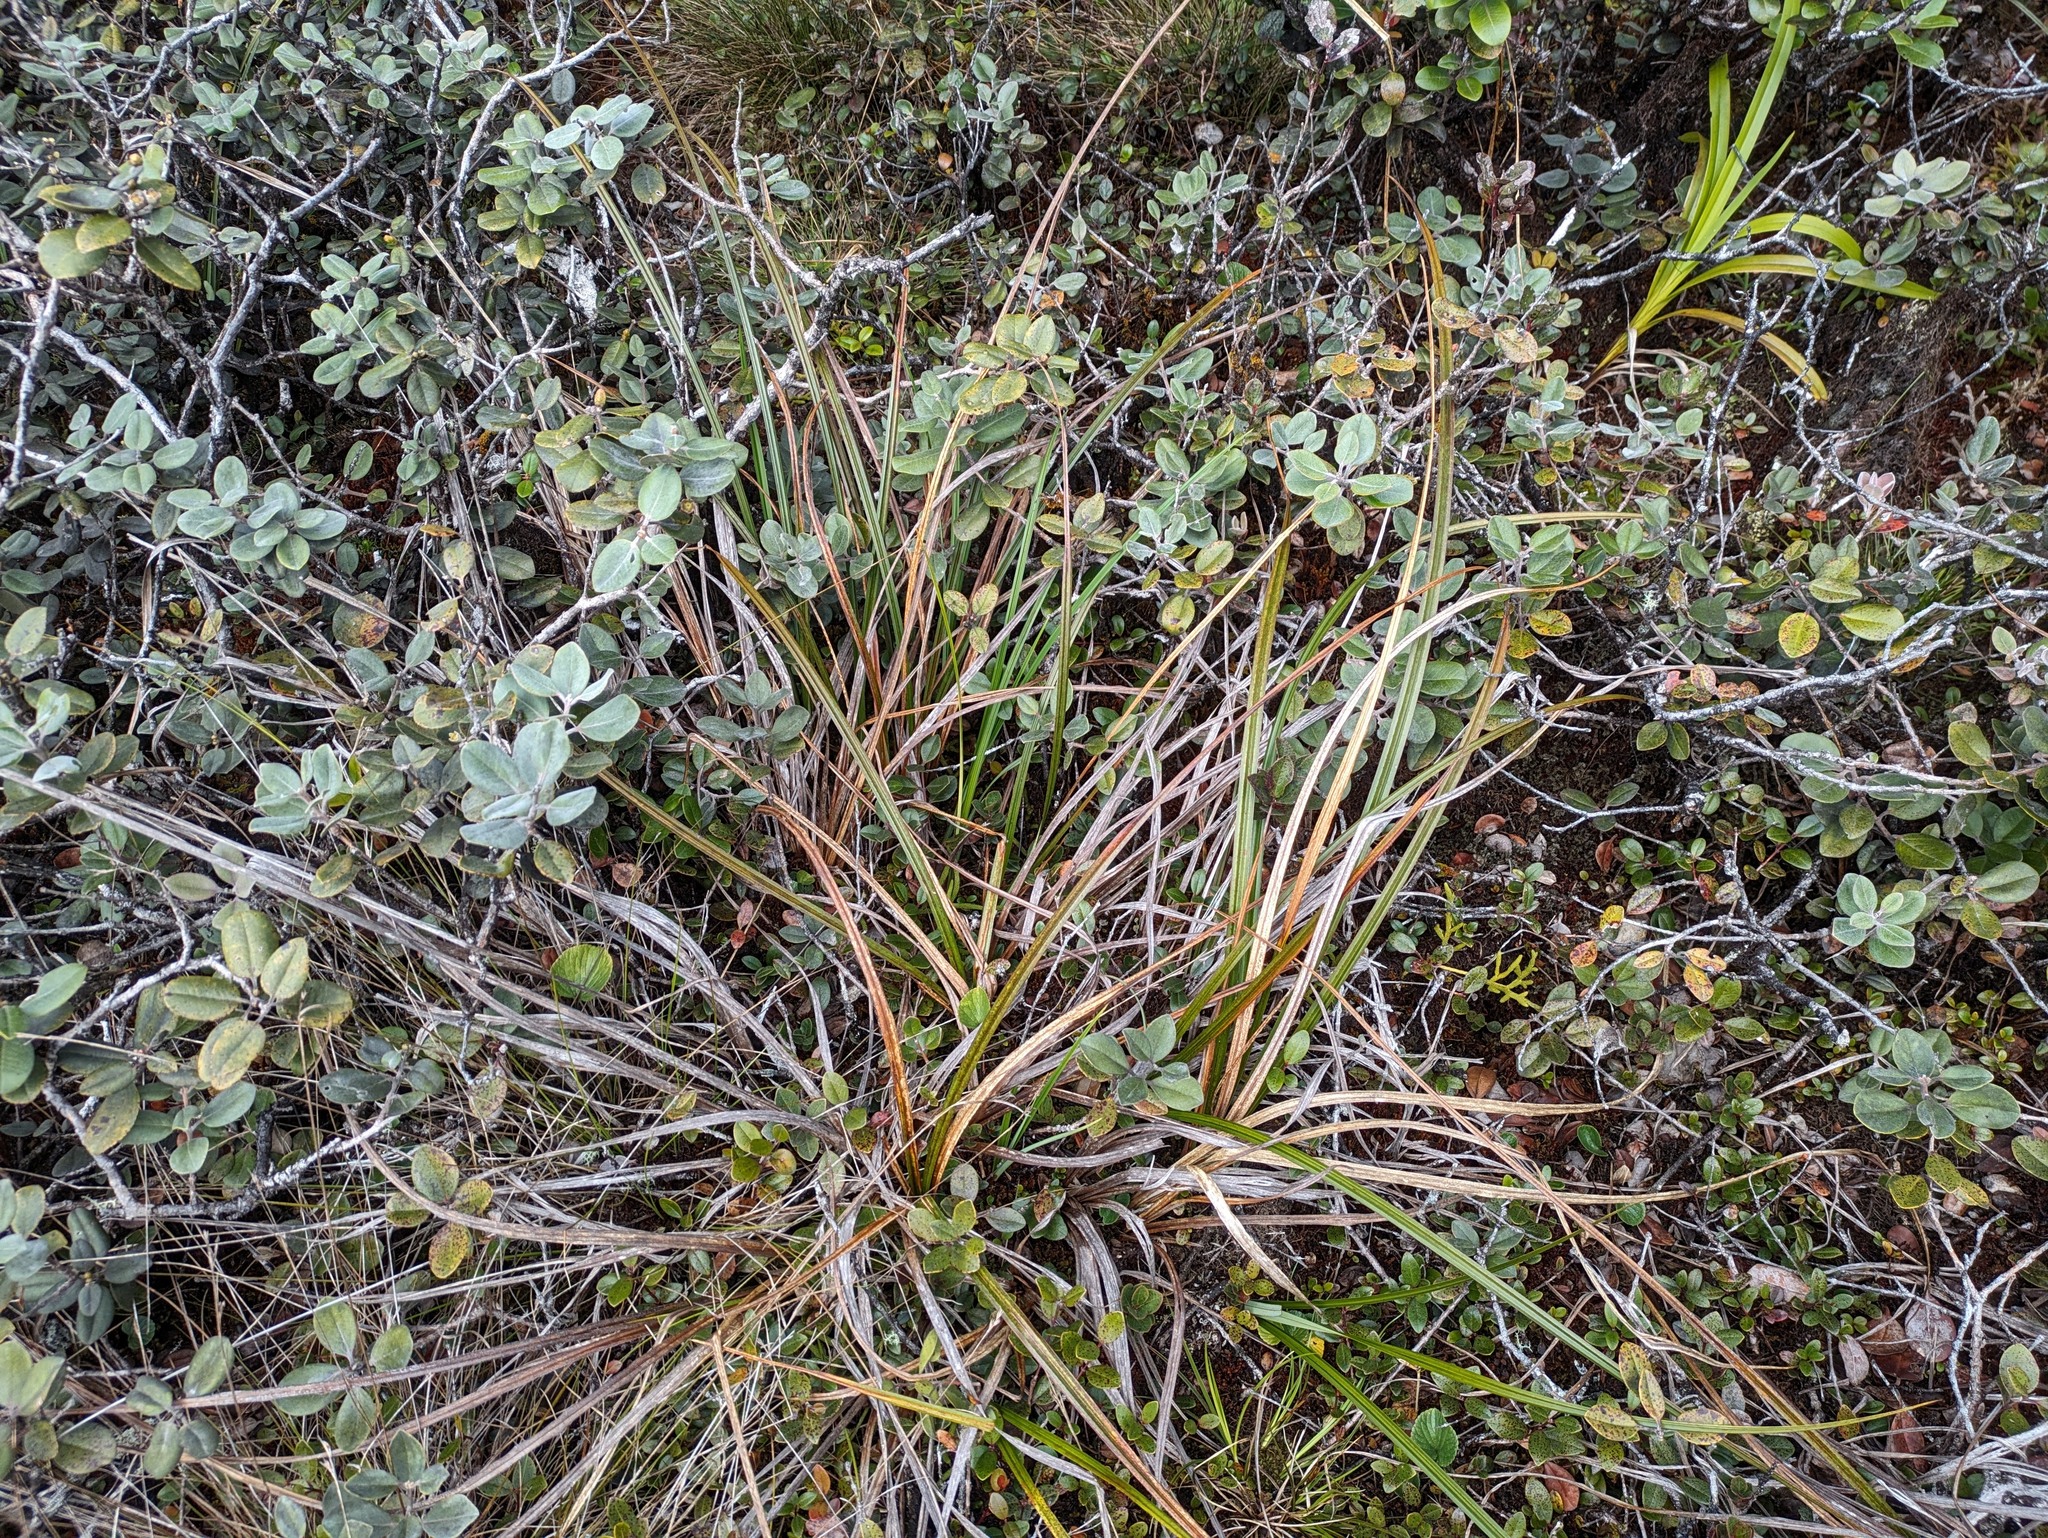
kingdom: Plantae
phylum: Tracheophyta
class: Liliopsida
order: Poales
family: Cyperaceae
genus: Carex
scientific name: Carex alligata
